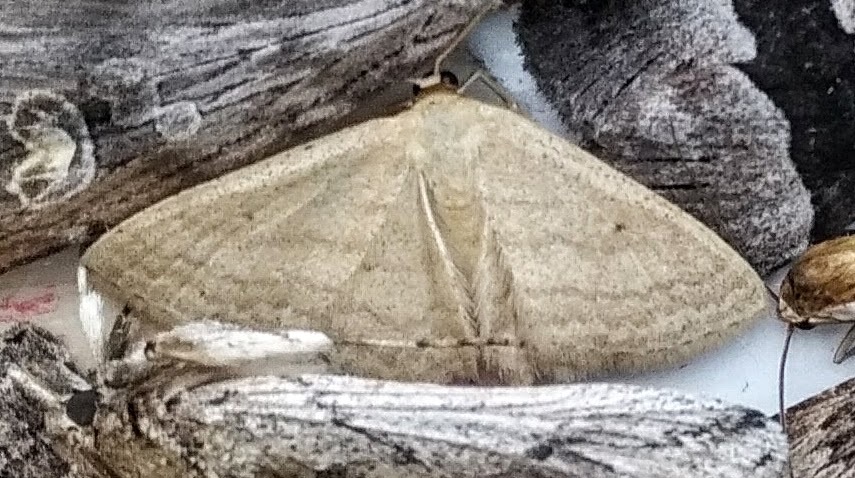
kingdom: Animalia
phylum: Arthropoda
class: Insecta
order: Lepidoptera
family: Geometridae
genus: Scopula
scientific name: Scopula inductata
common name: Soft-lined wave
